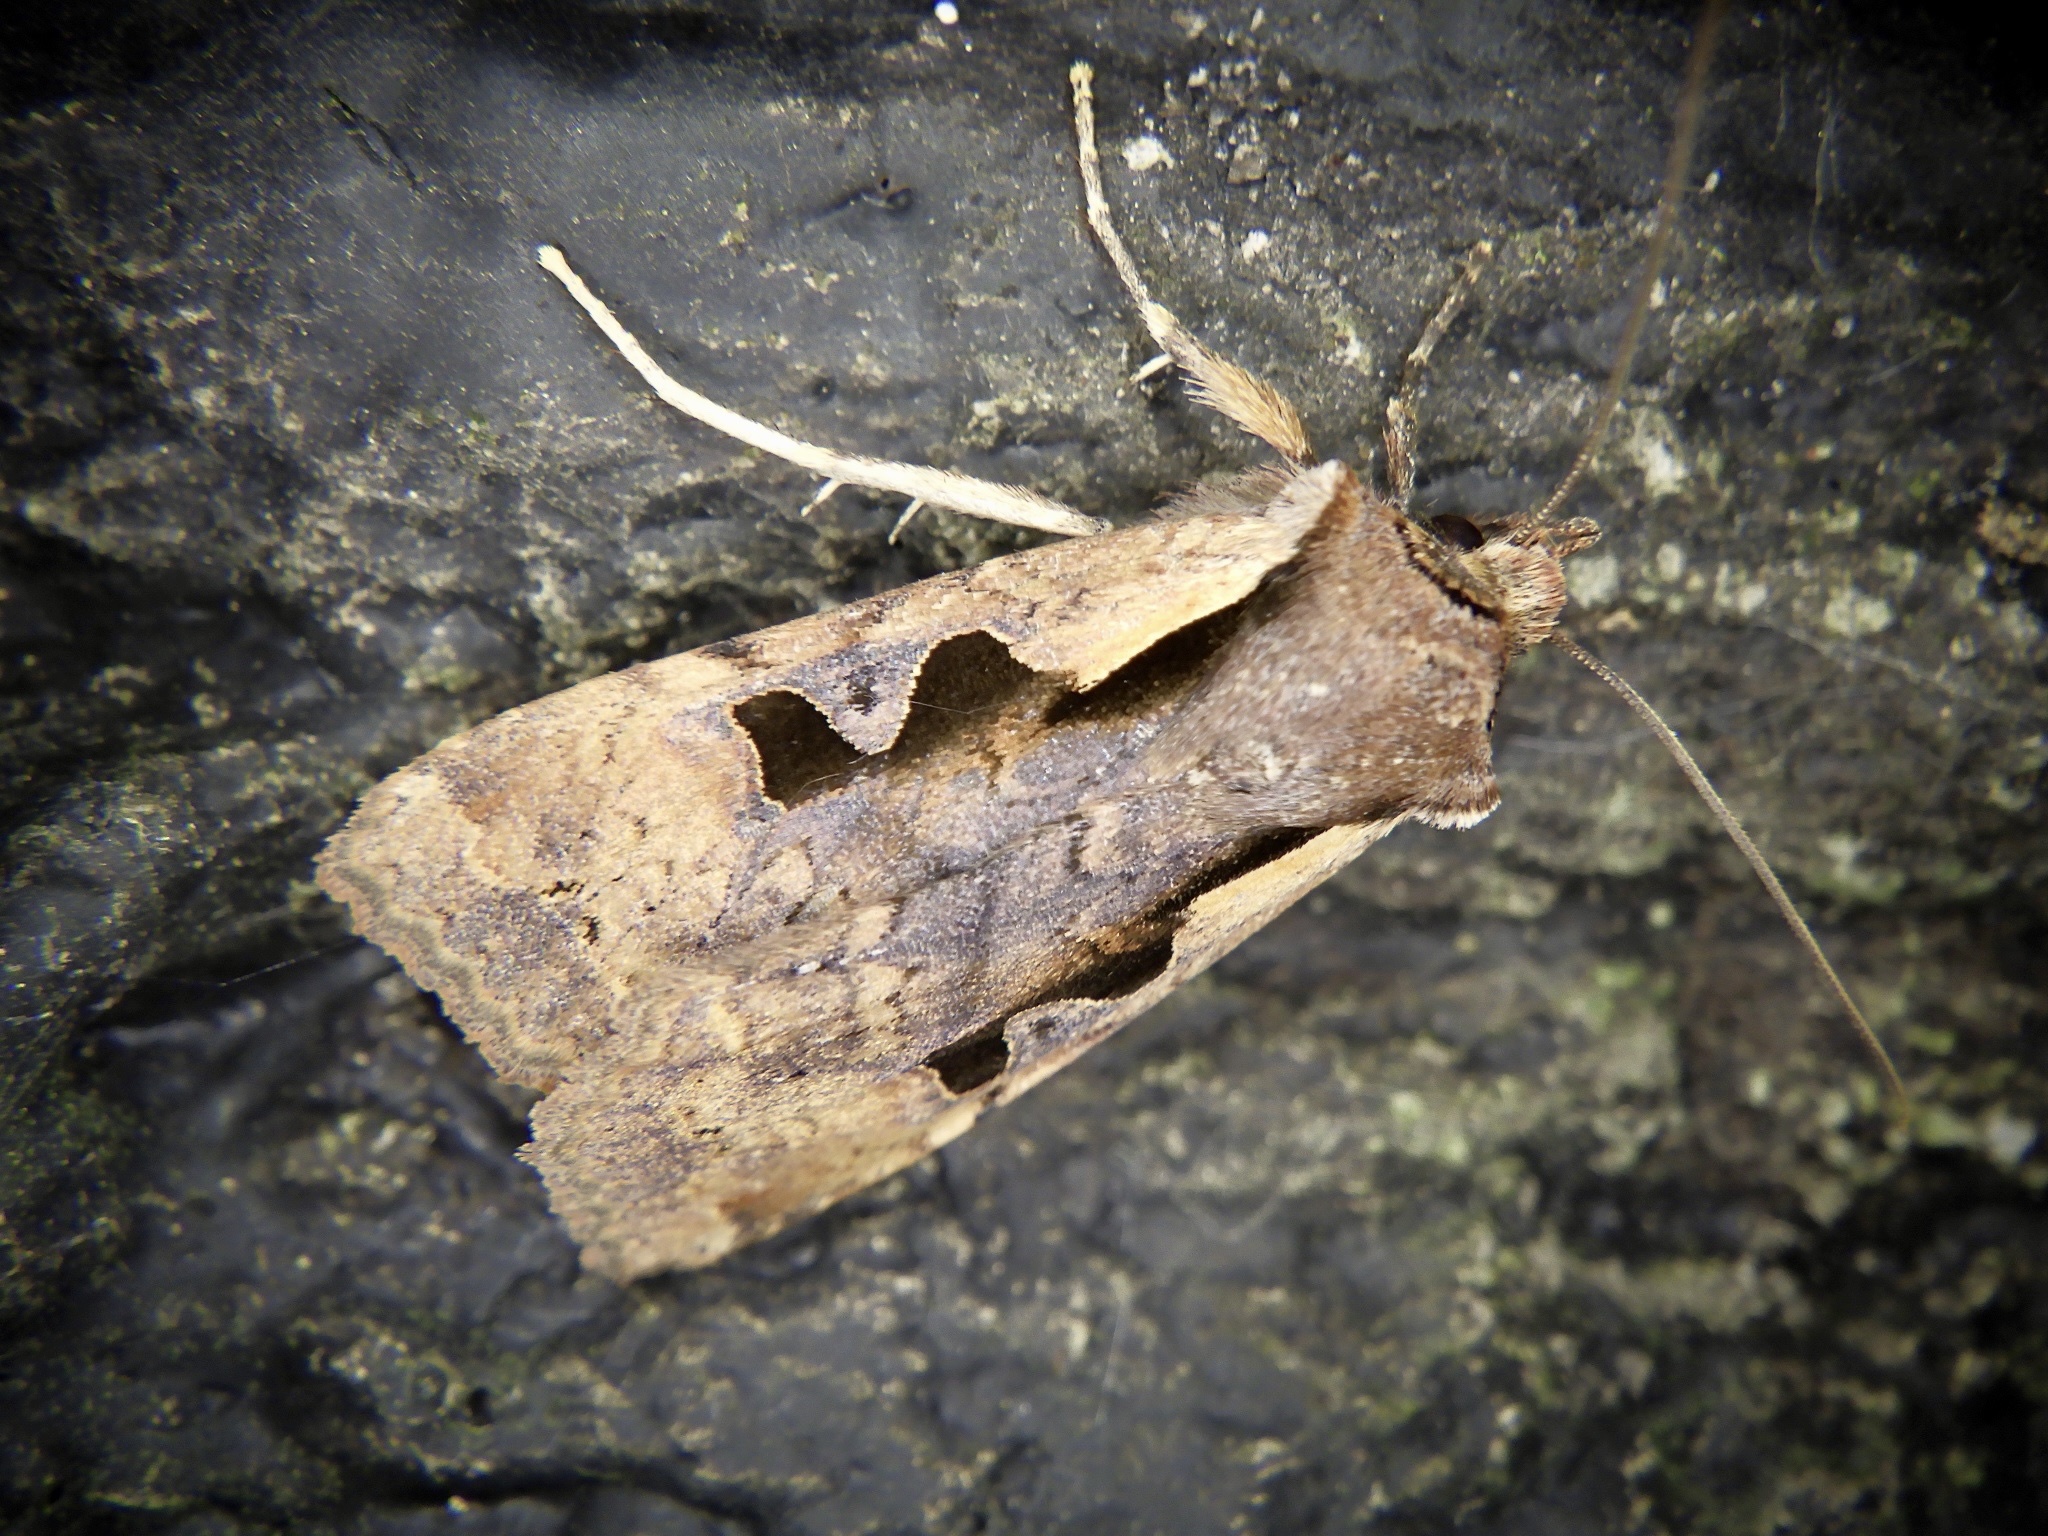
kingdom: Animalia
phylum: Arthropoda
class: Insecta
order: Lepidoptera
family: Noctuidae
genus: Sugitania
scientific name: Sugitania lepida
